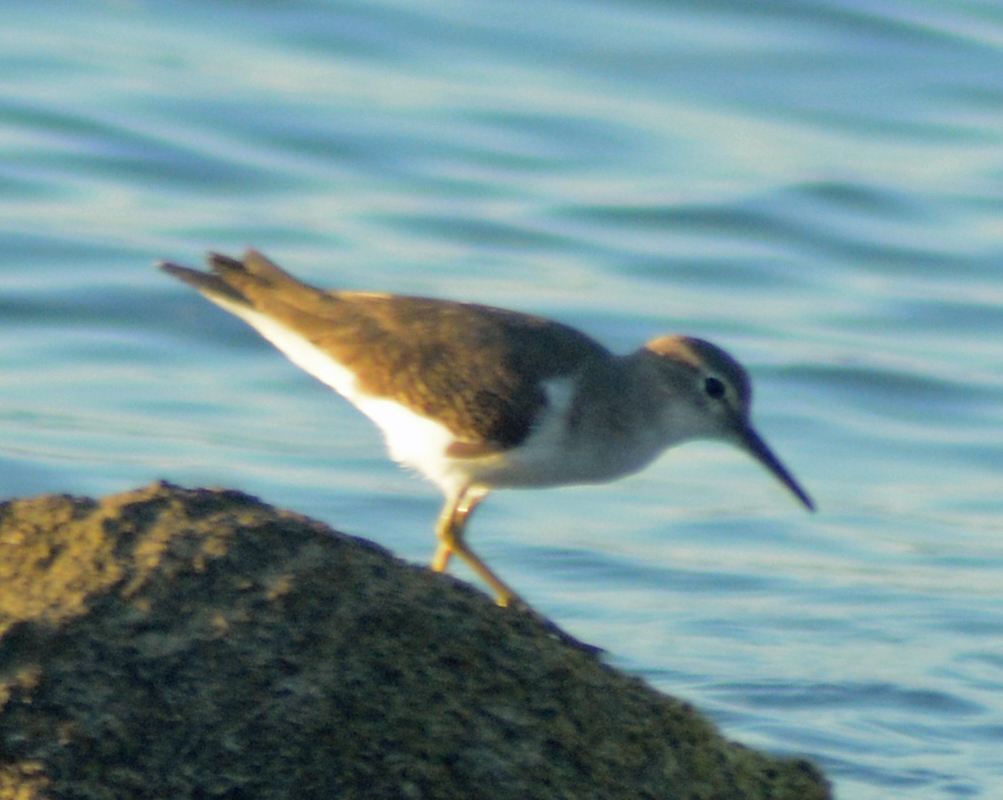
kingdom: Animalia
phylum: Chordata
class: Aves
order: Charadriiformes
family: Scolopacidae
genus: Actitis
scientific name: Actitis macularius
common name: Spotted sandpiper
